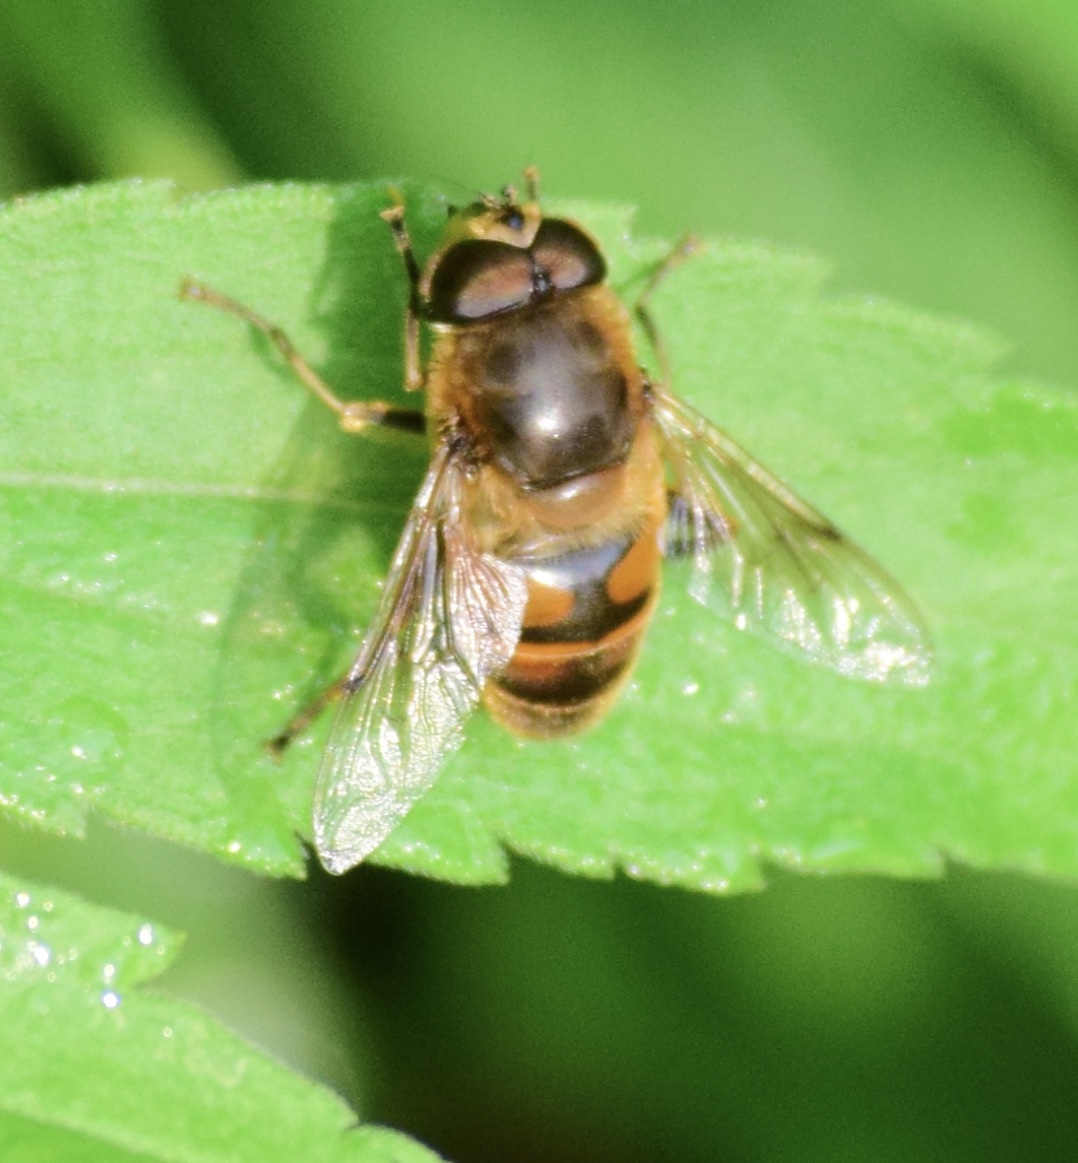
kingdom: Animalia
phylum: Arthropoda
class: Insecta
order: Diptera
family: Syrphidae
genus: Eristalis
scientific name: Eristalis tenax
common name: Drone fly
